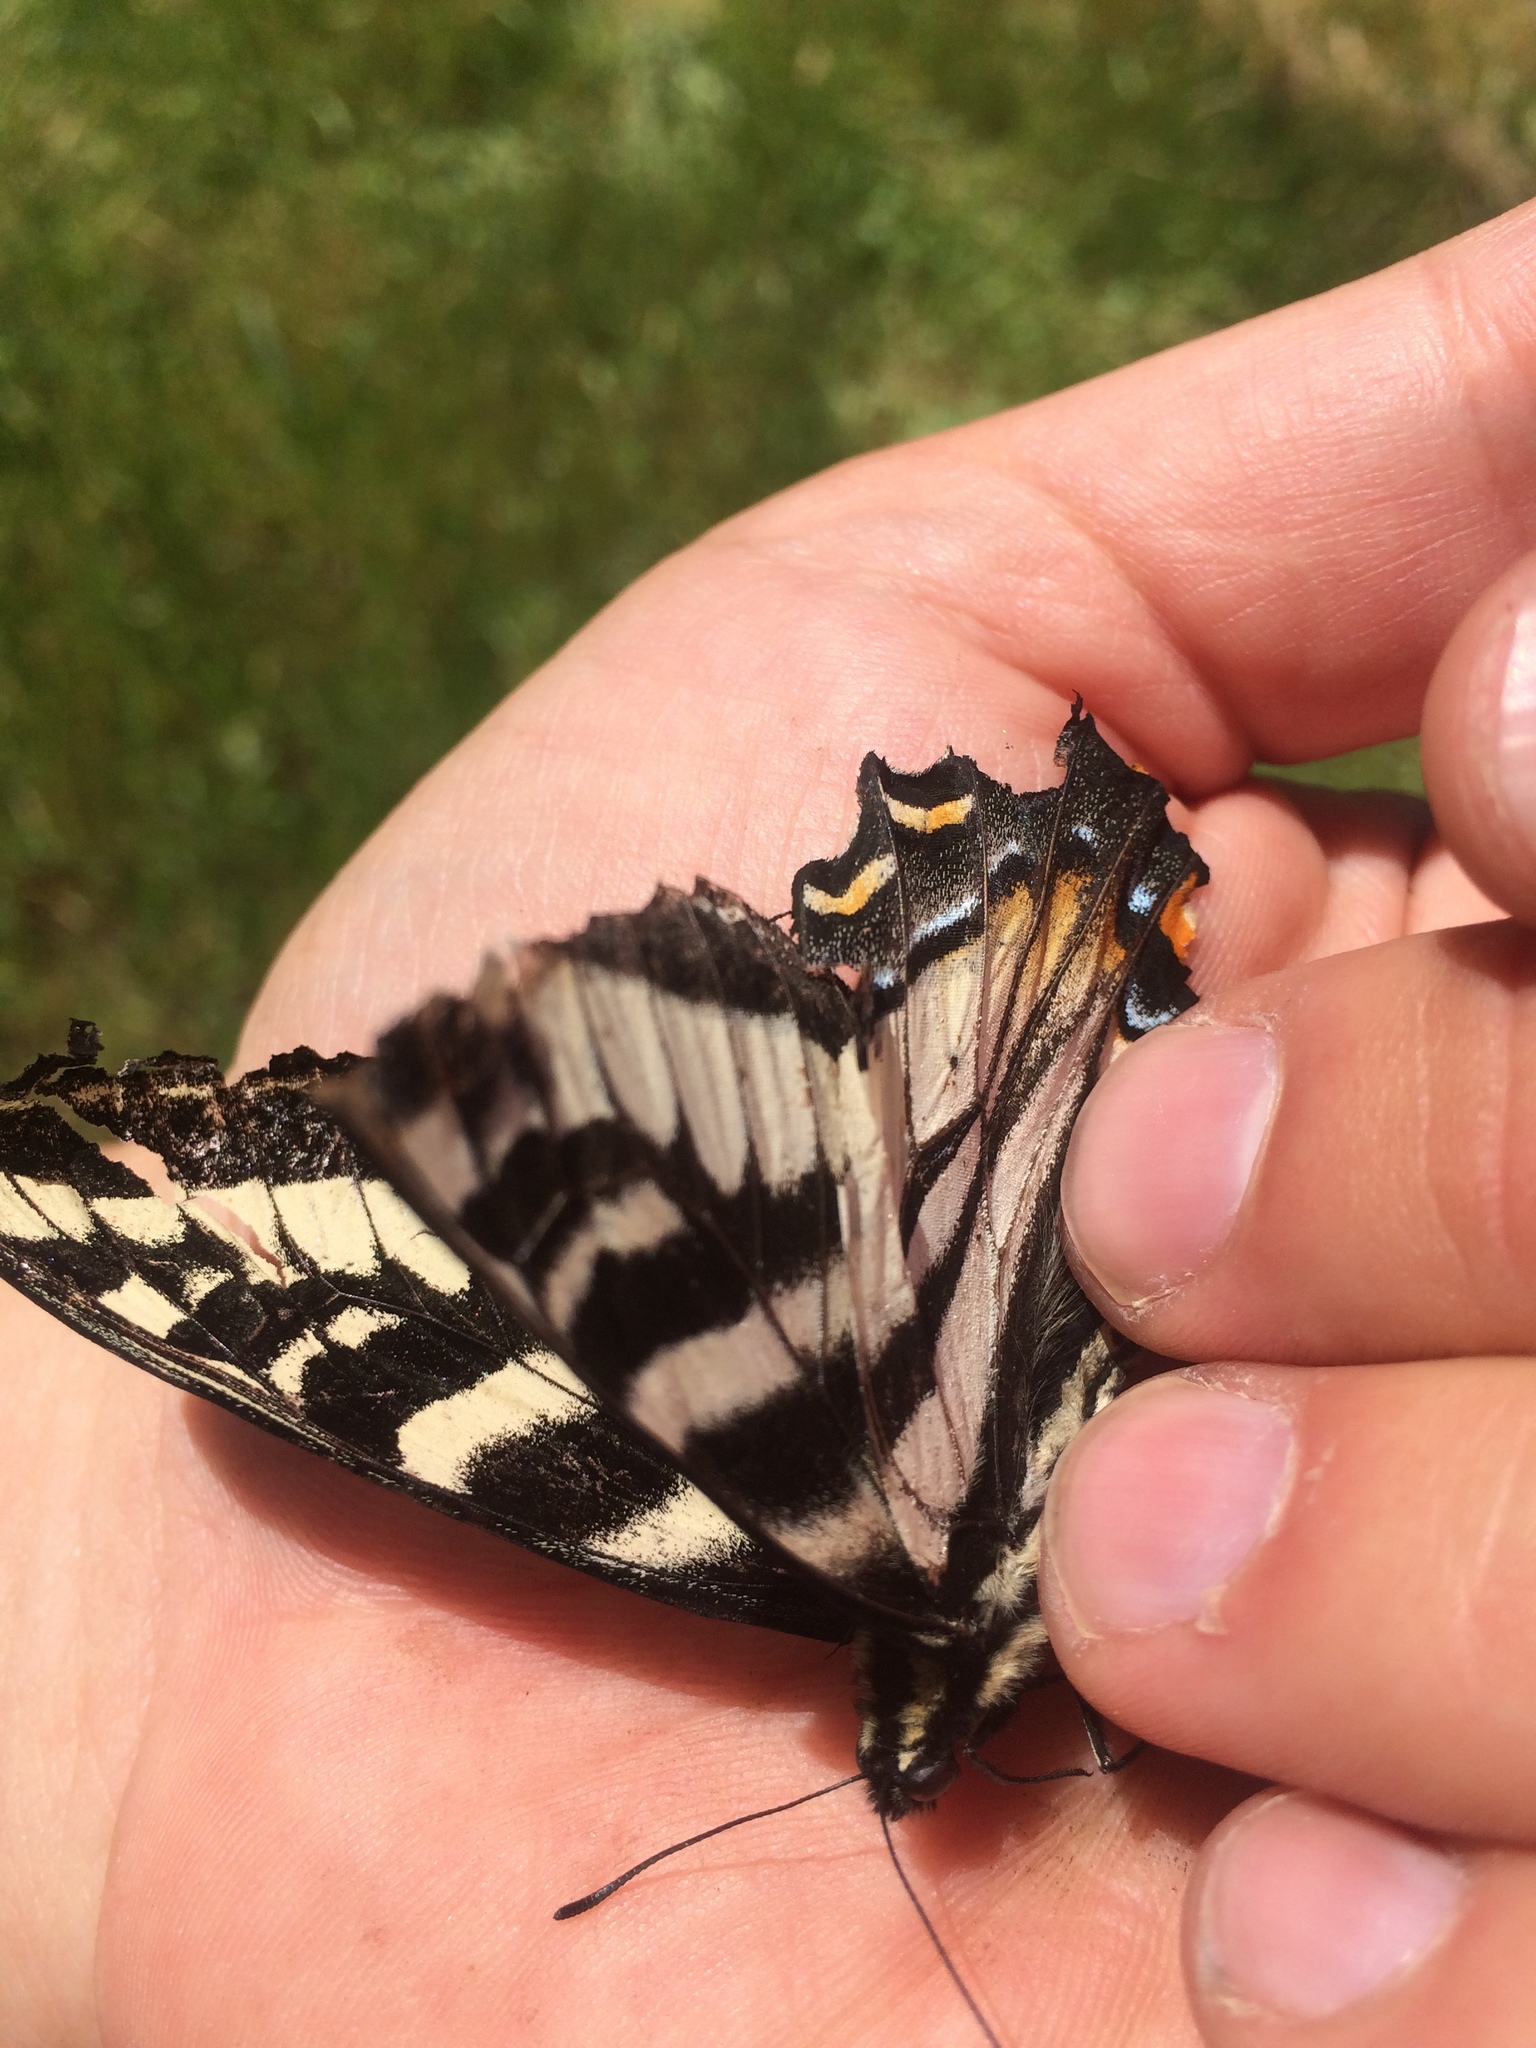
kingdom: Animalia
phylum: Arthropoda
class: Insecta
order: Lepidoptera
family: Papilionidae
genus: Papilio
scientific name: Papilio eurymedon
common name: Pale tiger swallowtail
